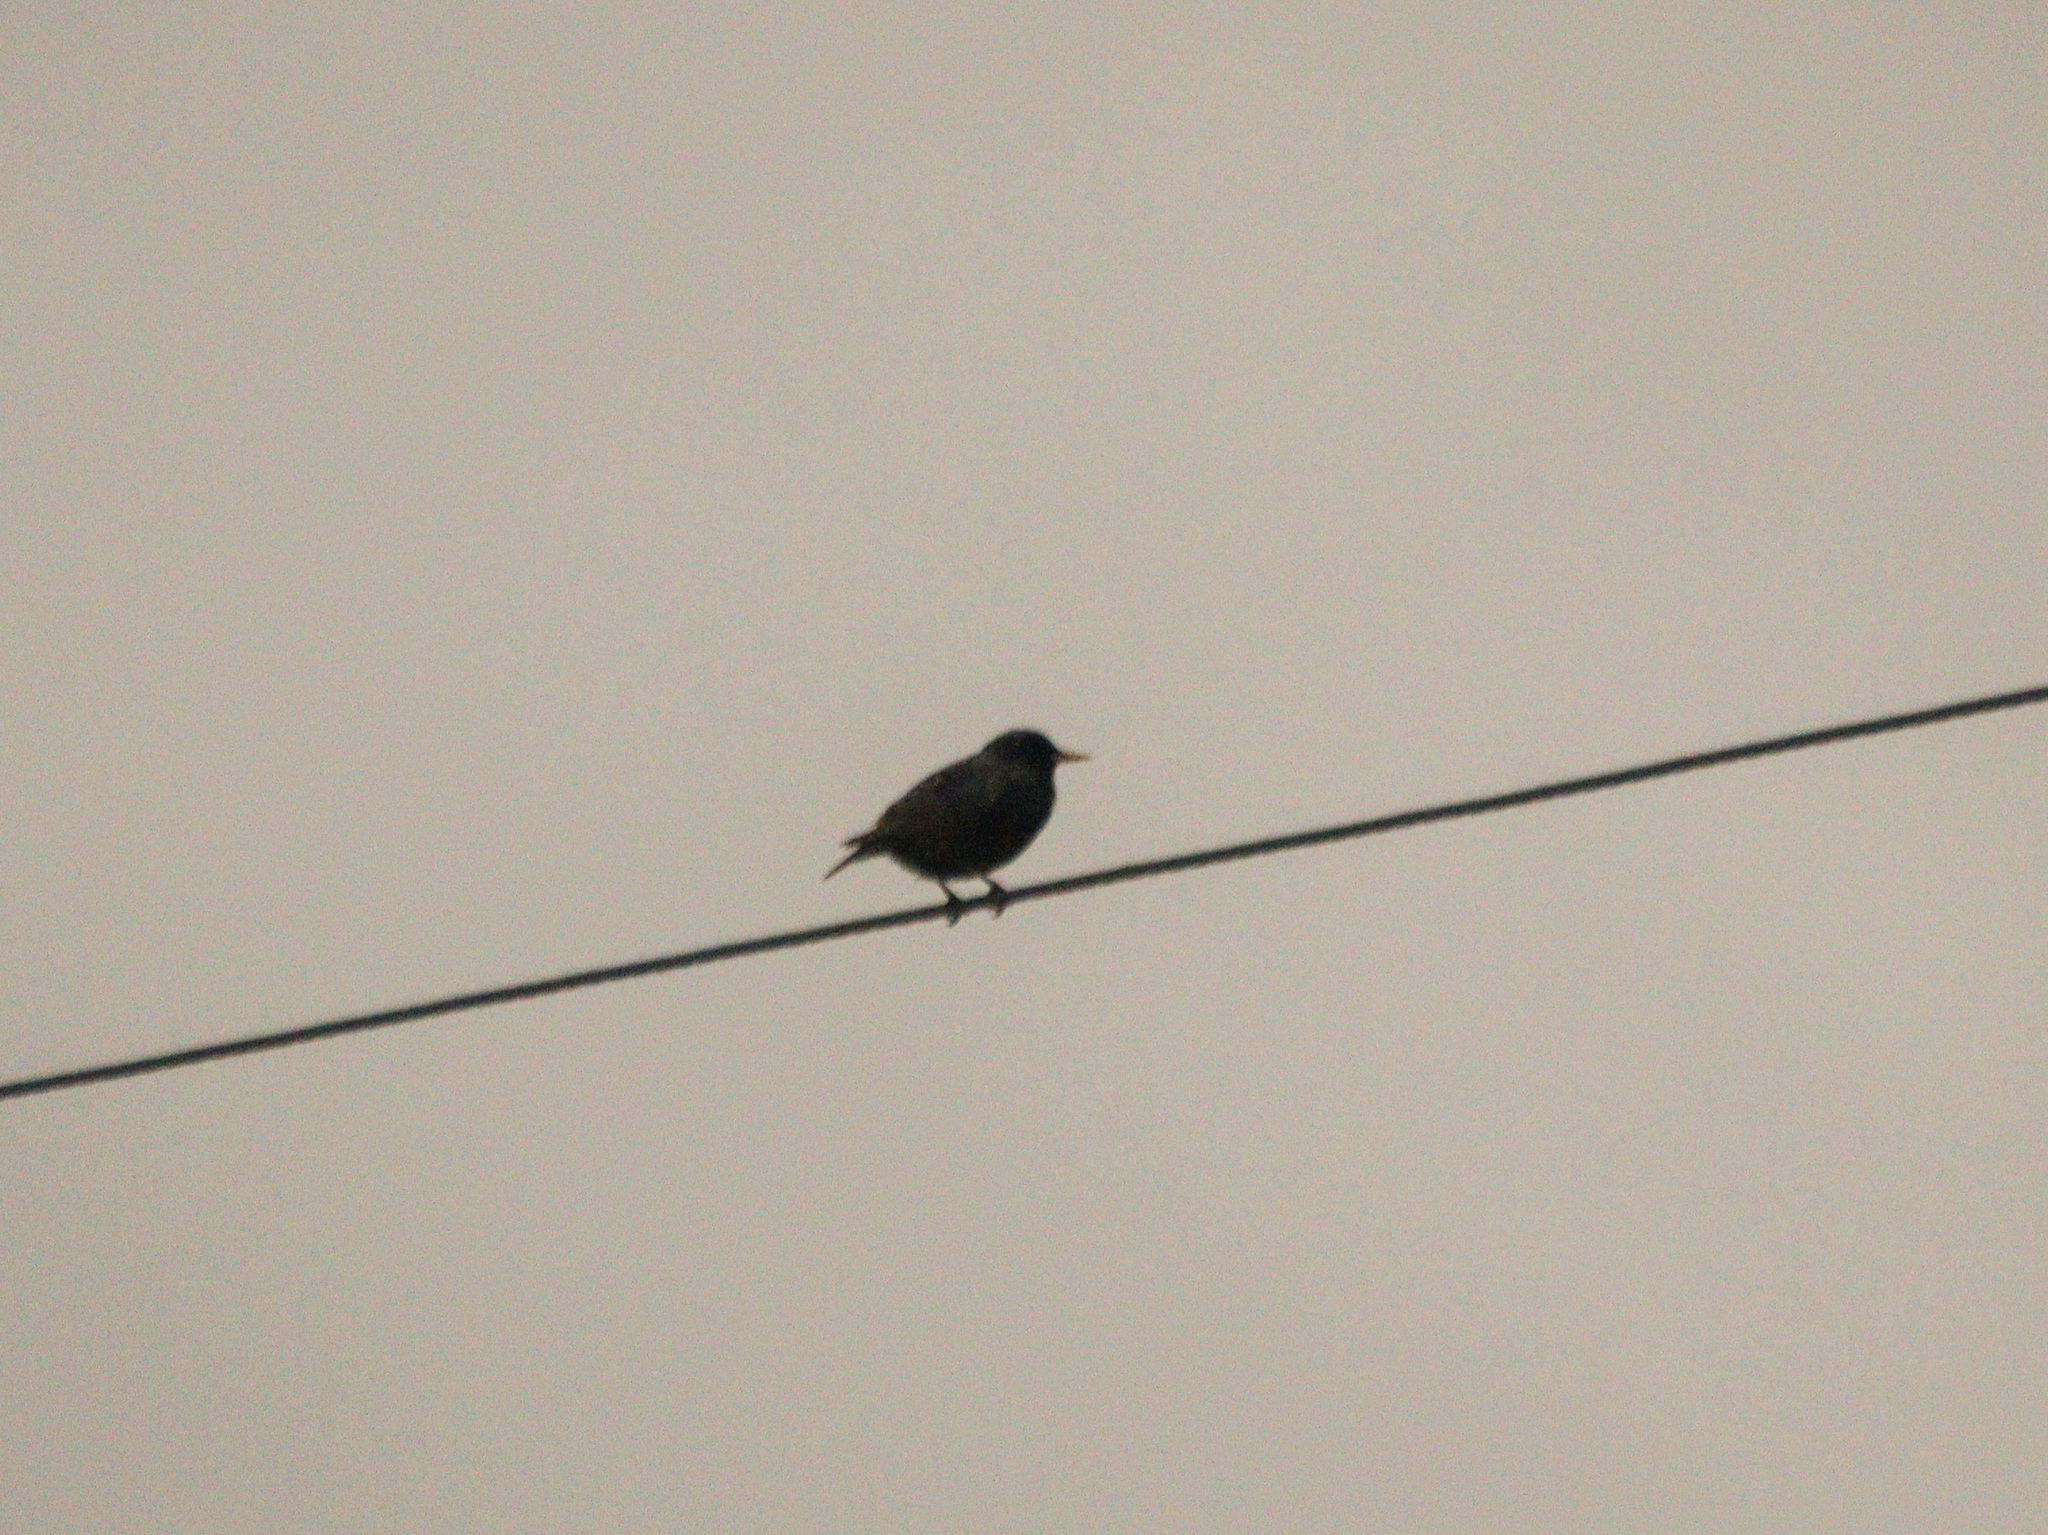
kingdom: Animalia
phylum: Chordata
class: Aves
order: Passeriformes
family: Sturnidae
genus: Sturnus
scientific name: Sturnus vulgaris
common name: Common starling
